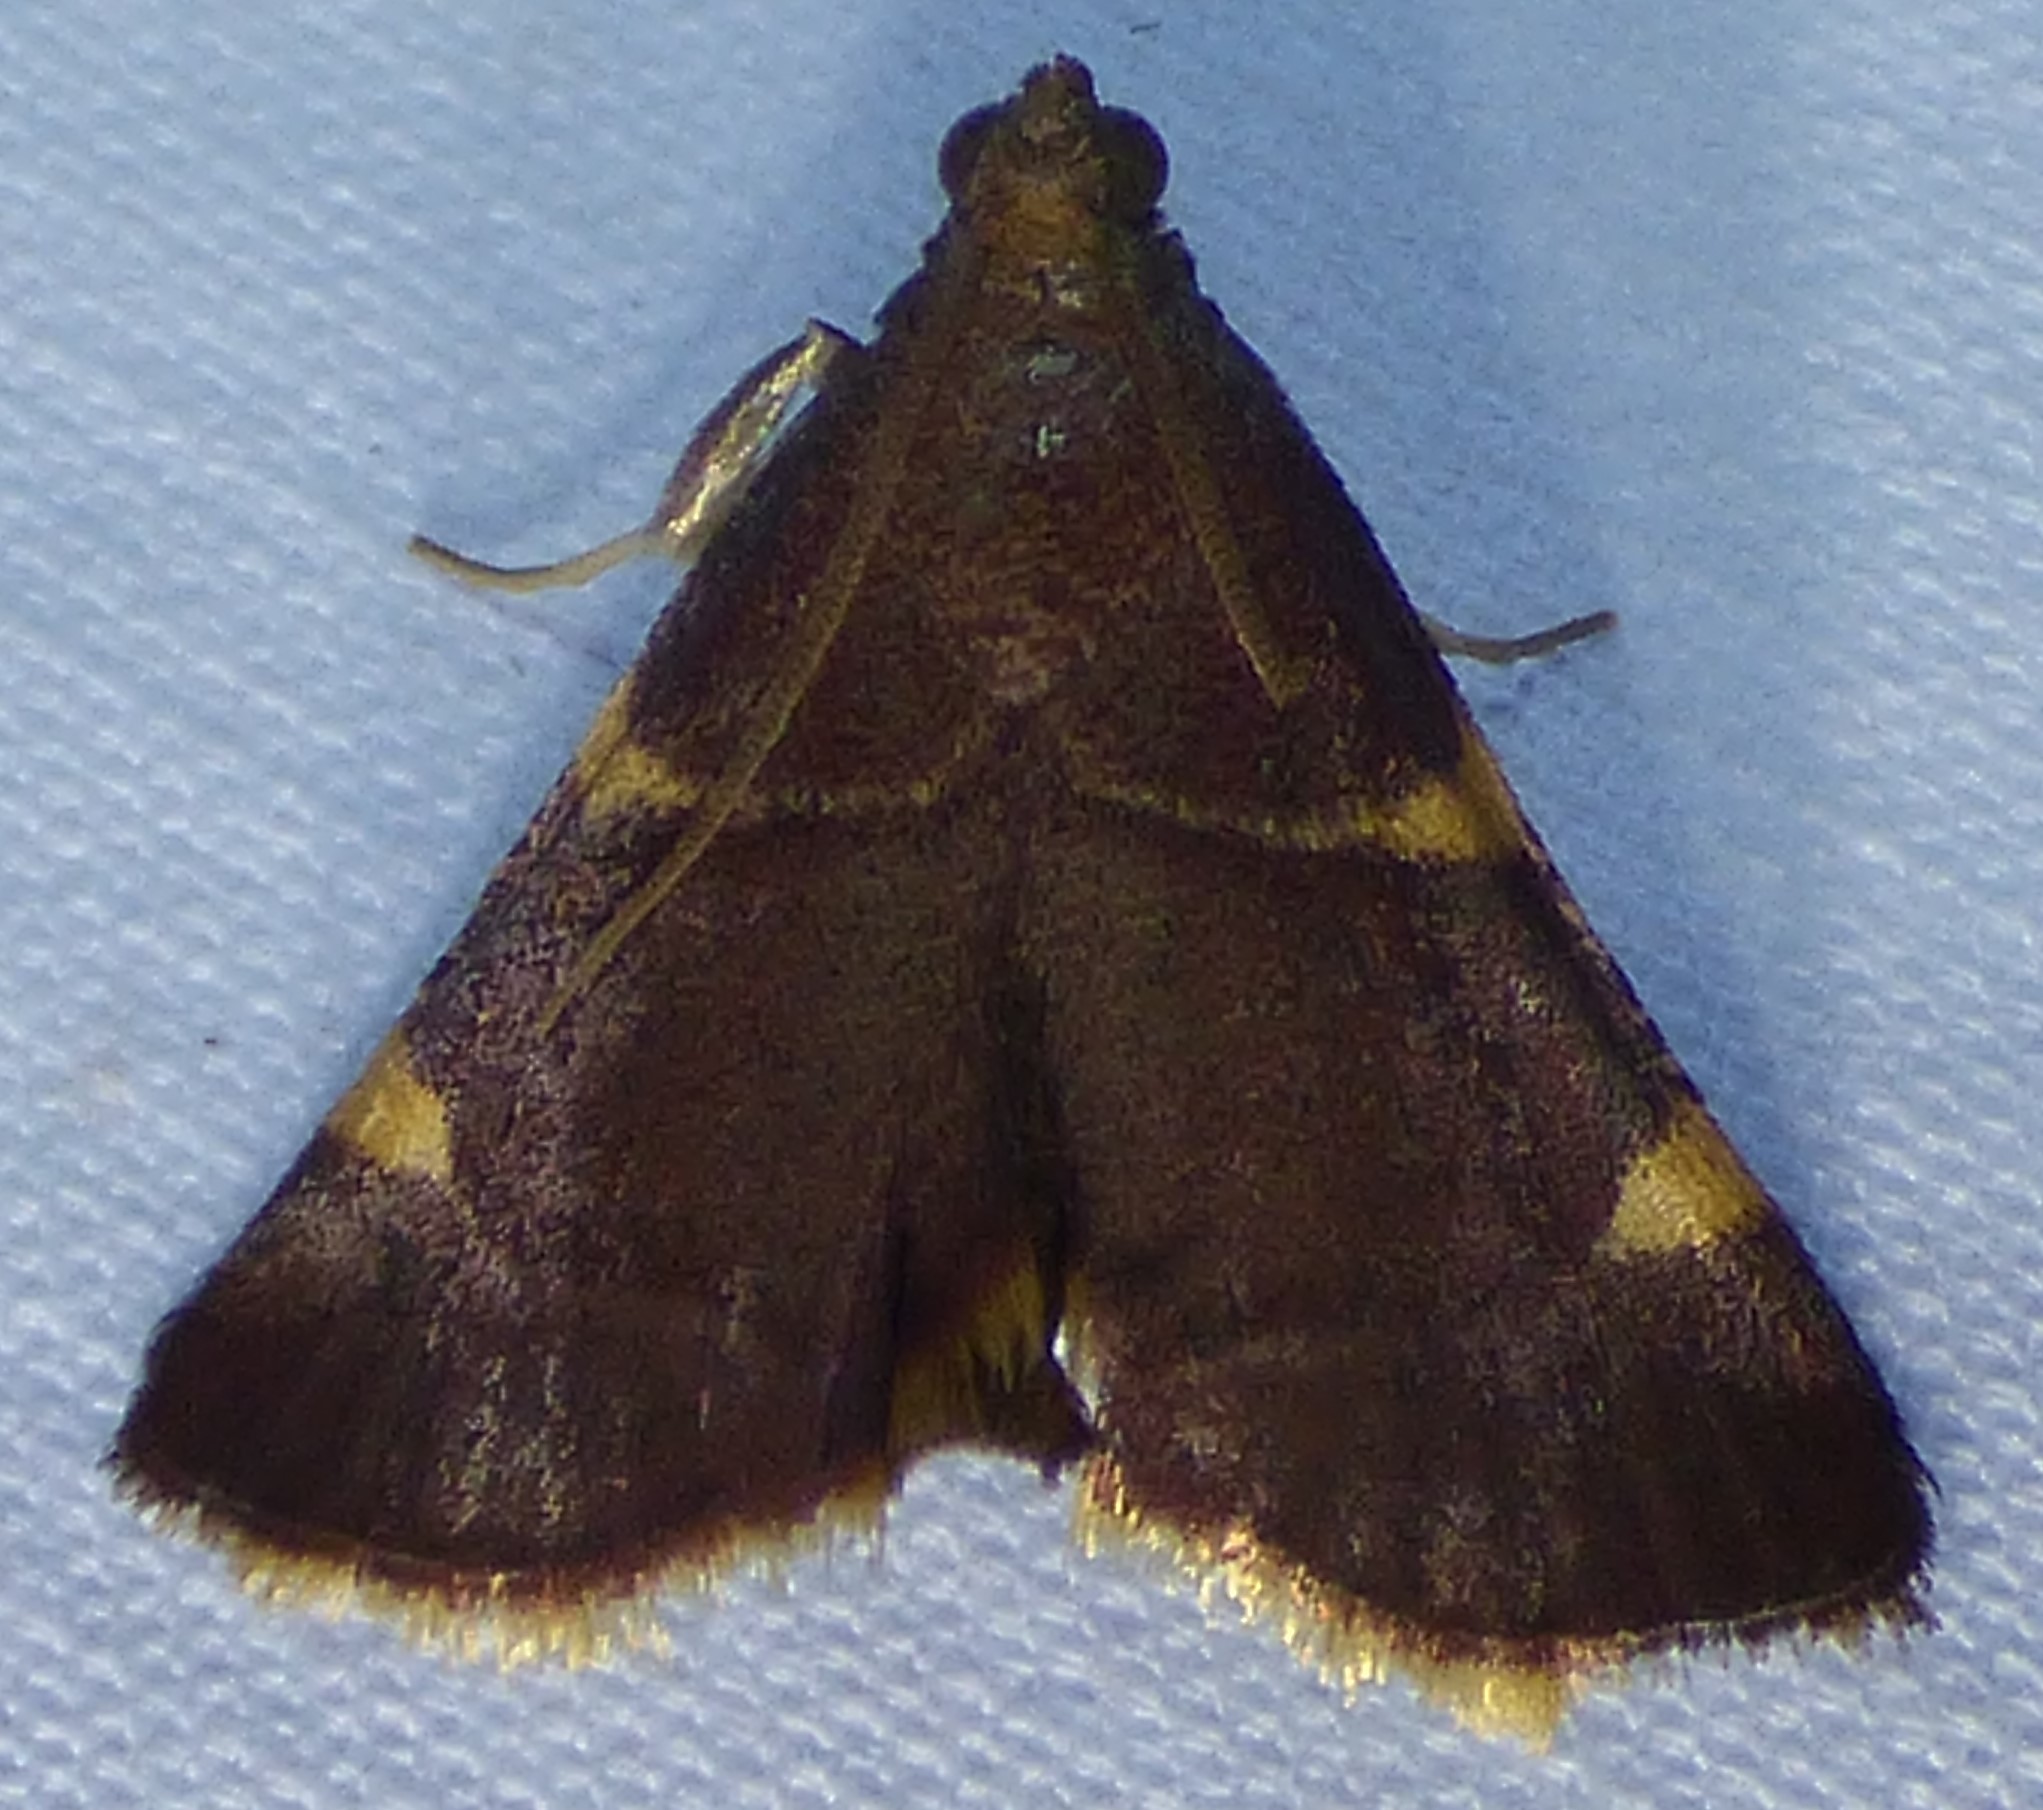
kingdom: Animalia
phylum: Arthropoda
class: Insecta
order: Lepidoptera
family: Pyralidae
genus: Hypsopygia
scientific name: Hypsopygia olinalis
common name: Yellow-fringed dolichomia moth
